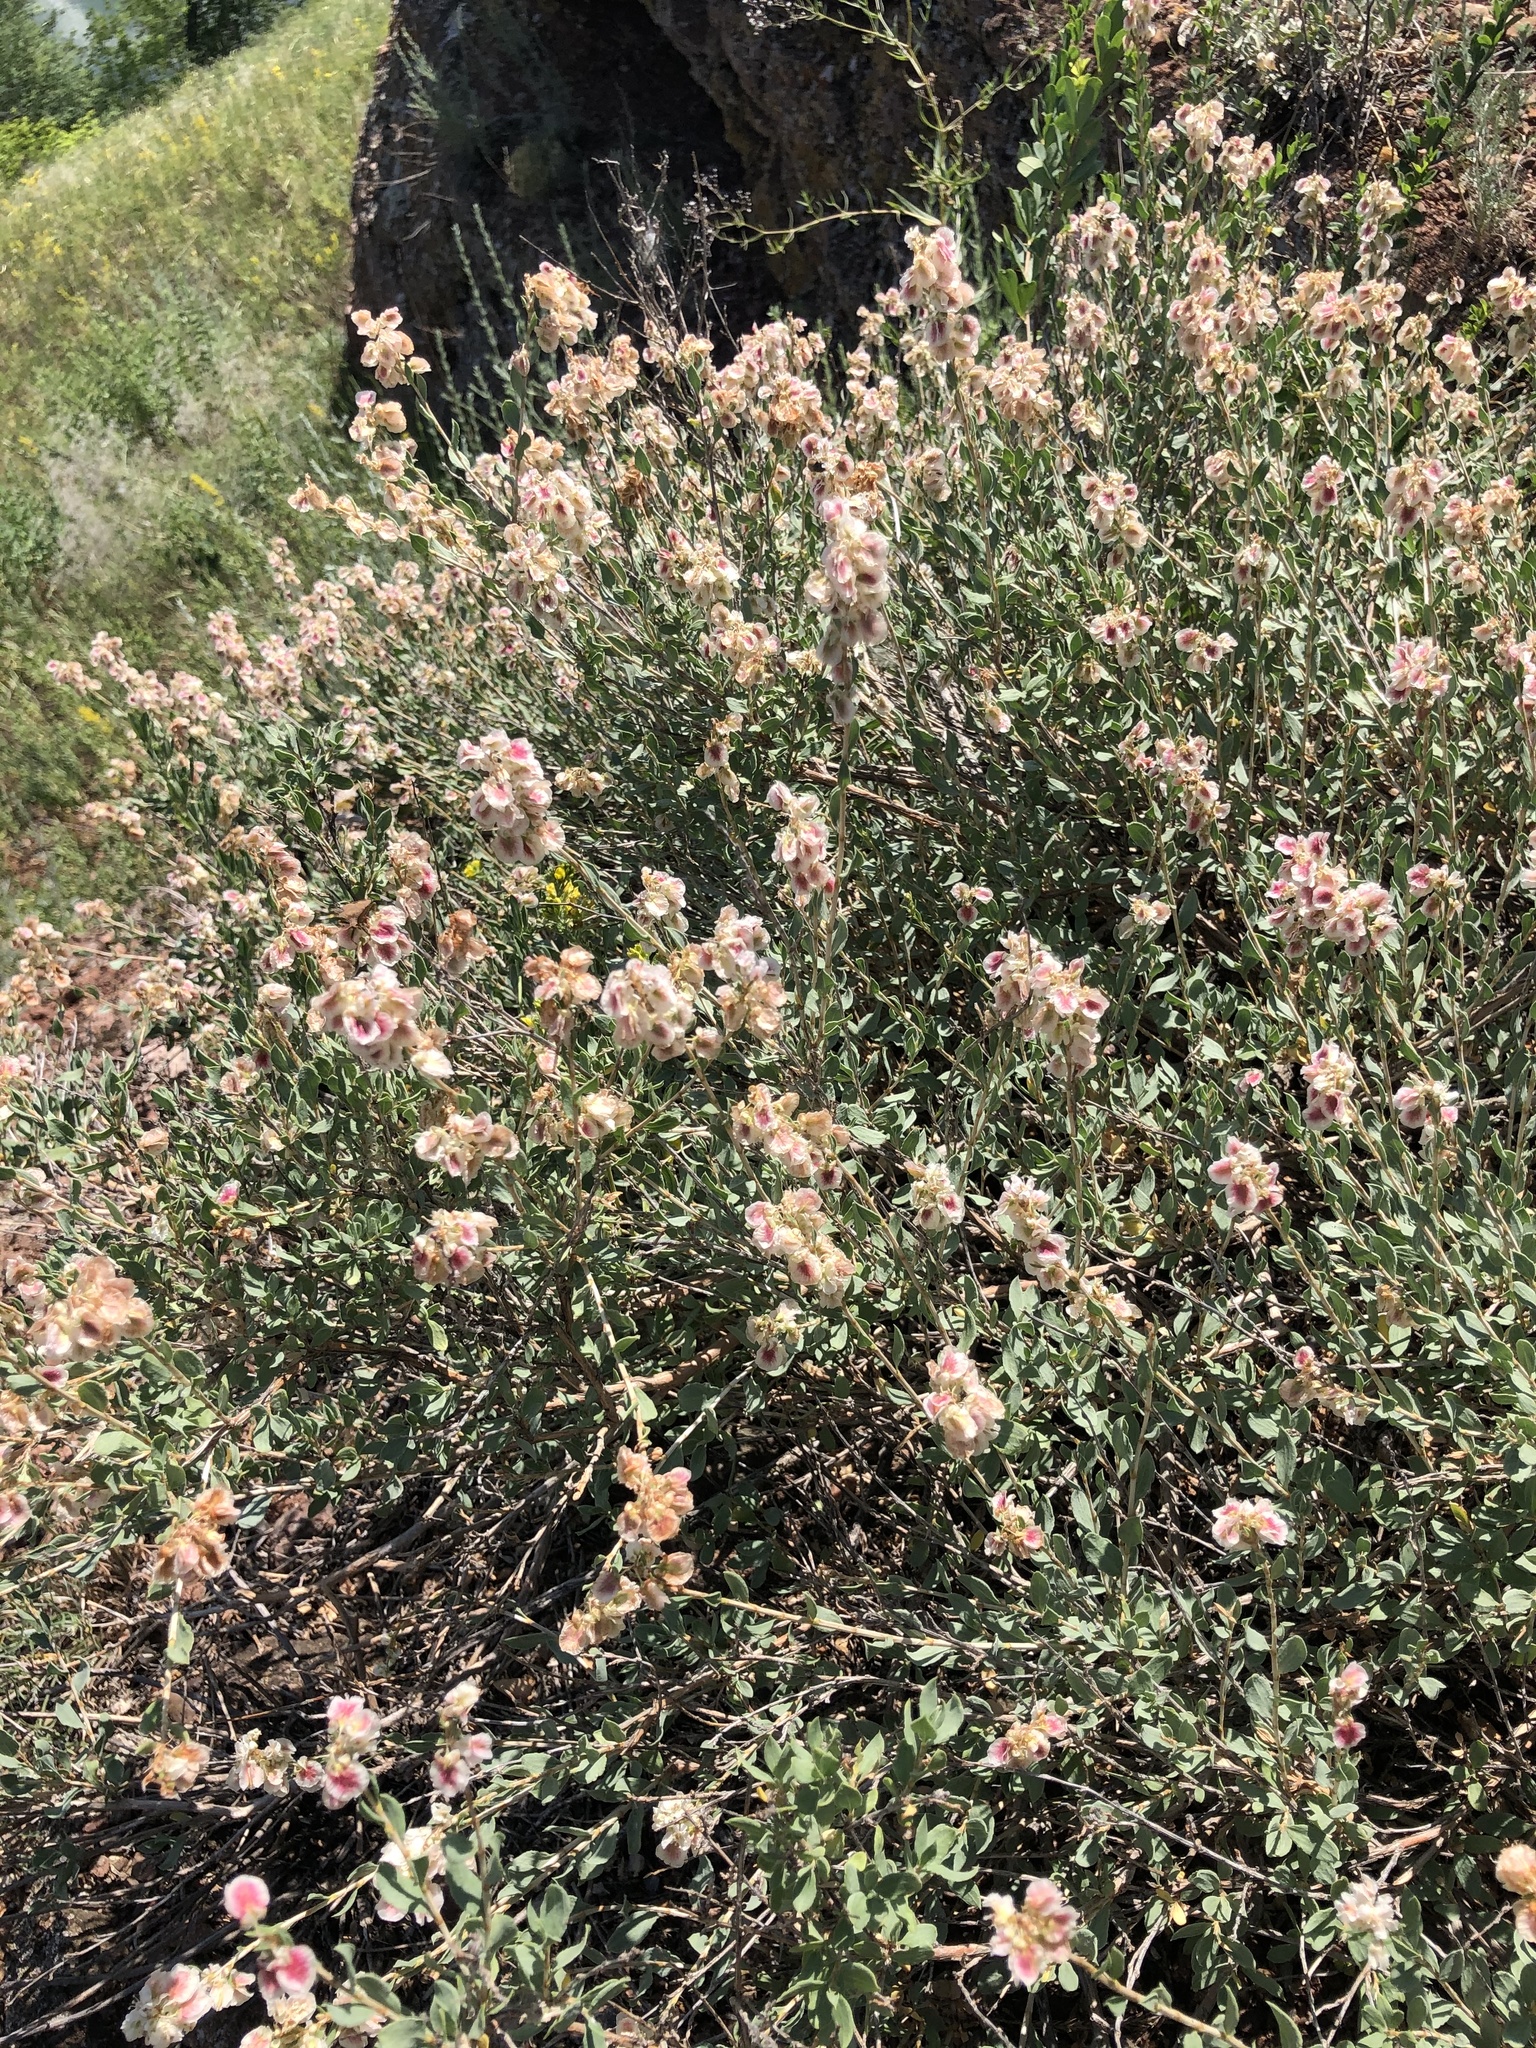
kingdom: Plantae
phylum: Tracheophyta
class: Magnoliopsida
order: Caryophyllales
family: Polygonaceae
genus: Atraphaxis
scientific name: Atraphaxis frutescens
